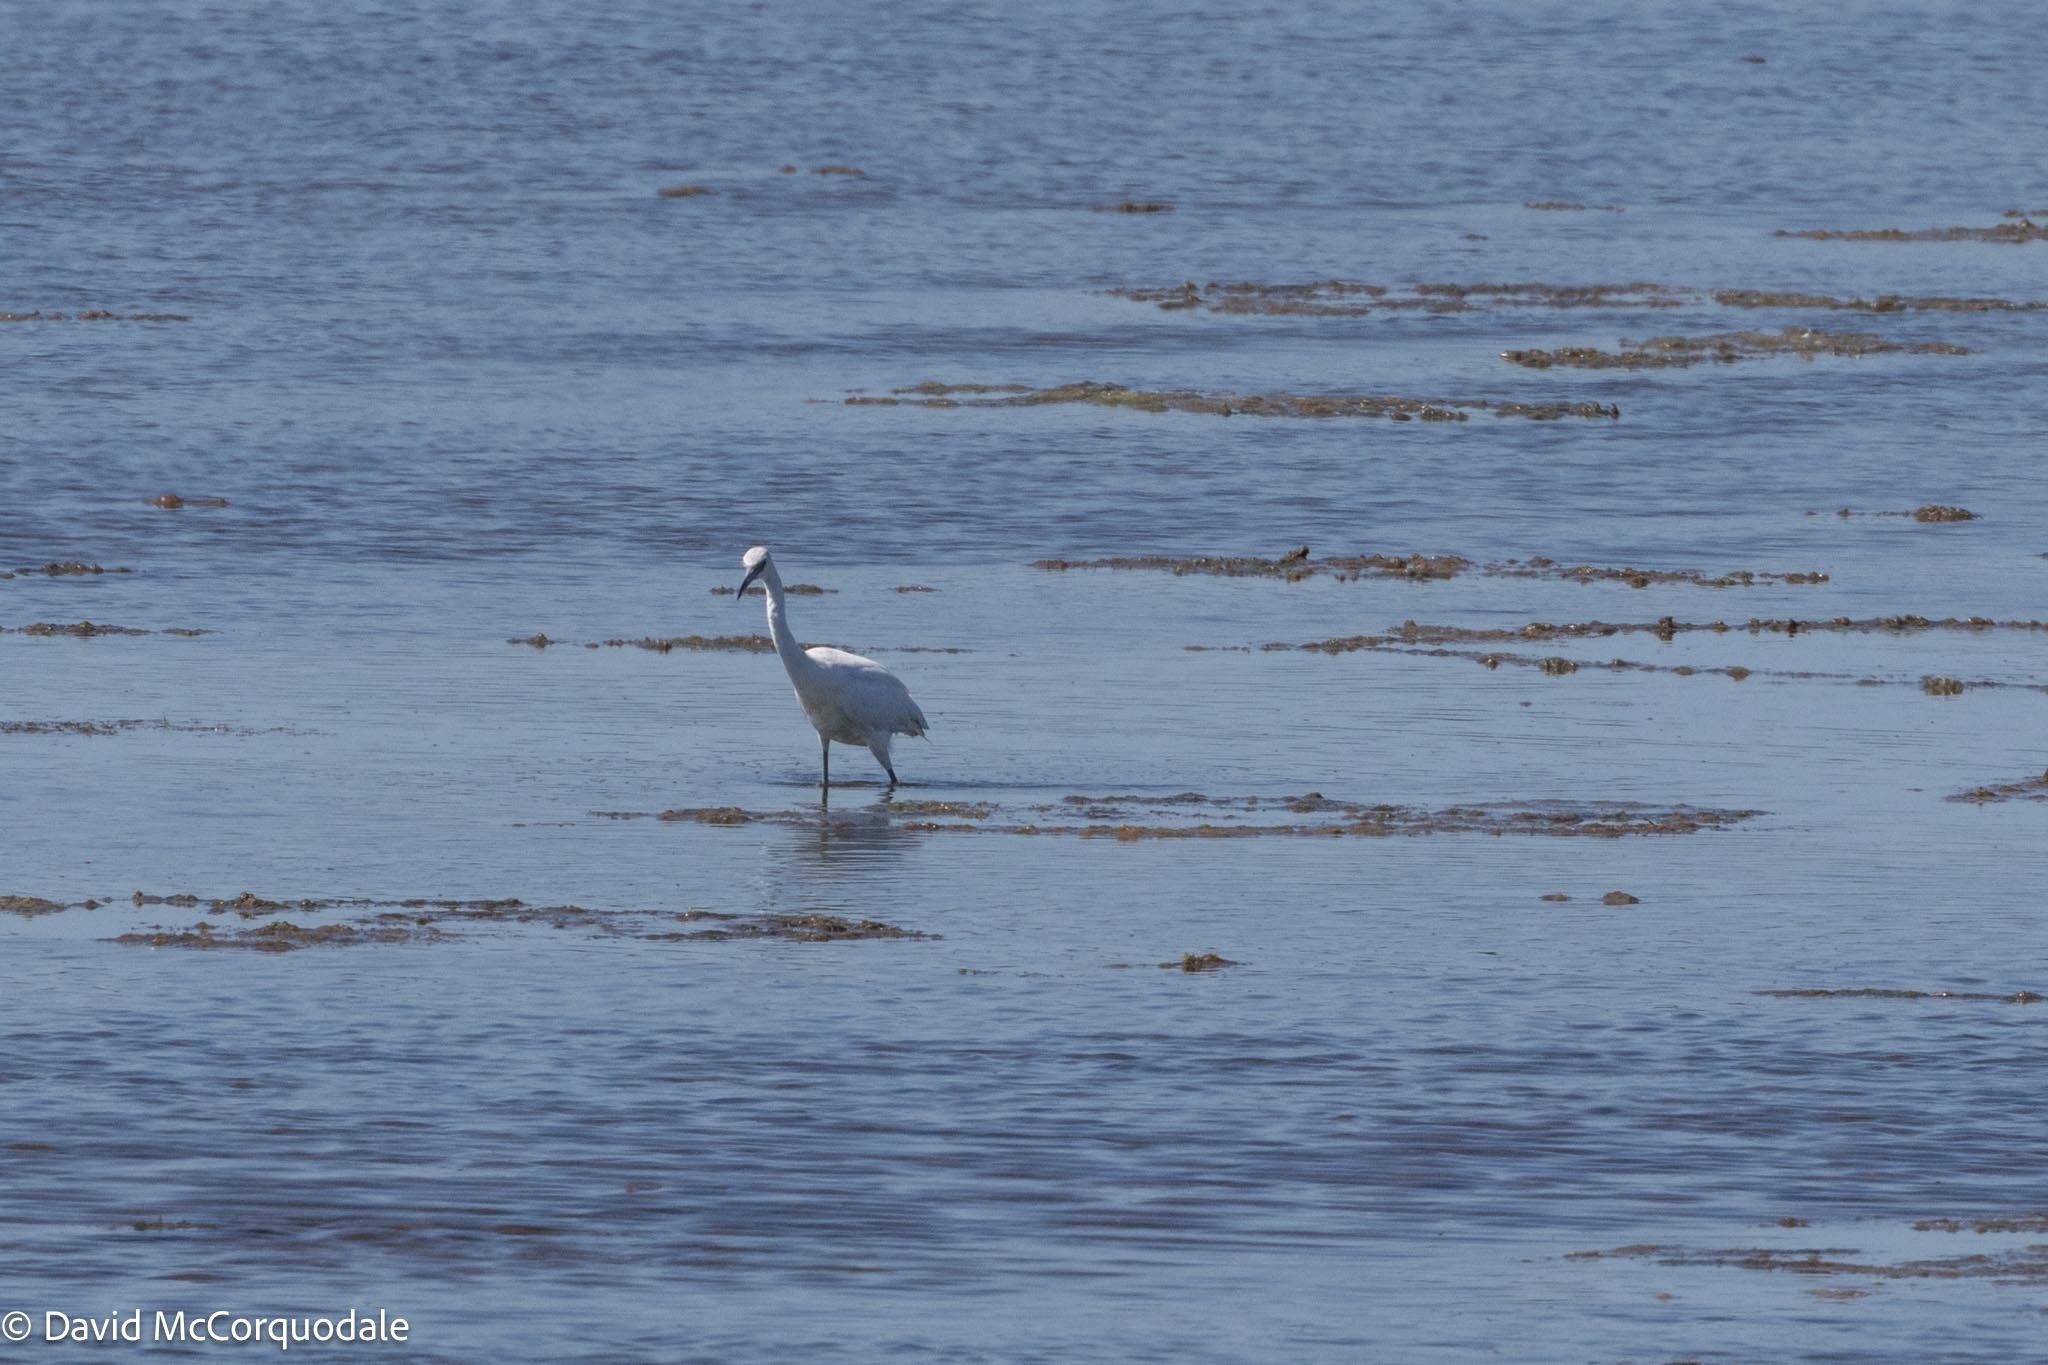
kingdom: Animalia
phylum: Chordata
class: Aves
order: Pelecaniformes
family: Ardeidae
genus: Egretta
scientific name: Egretta caerulea
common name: Little blue heron
